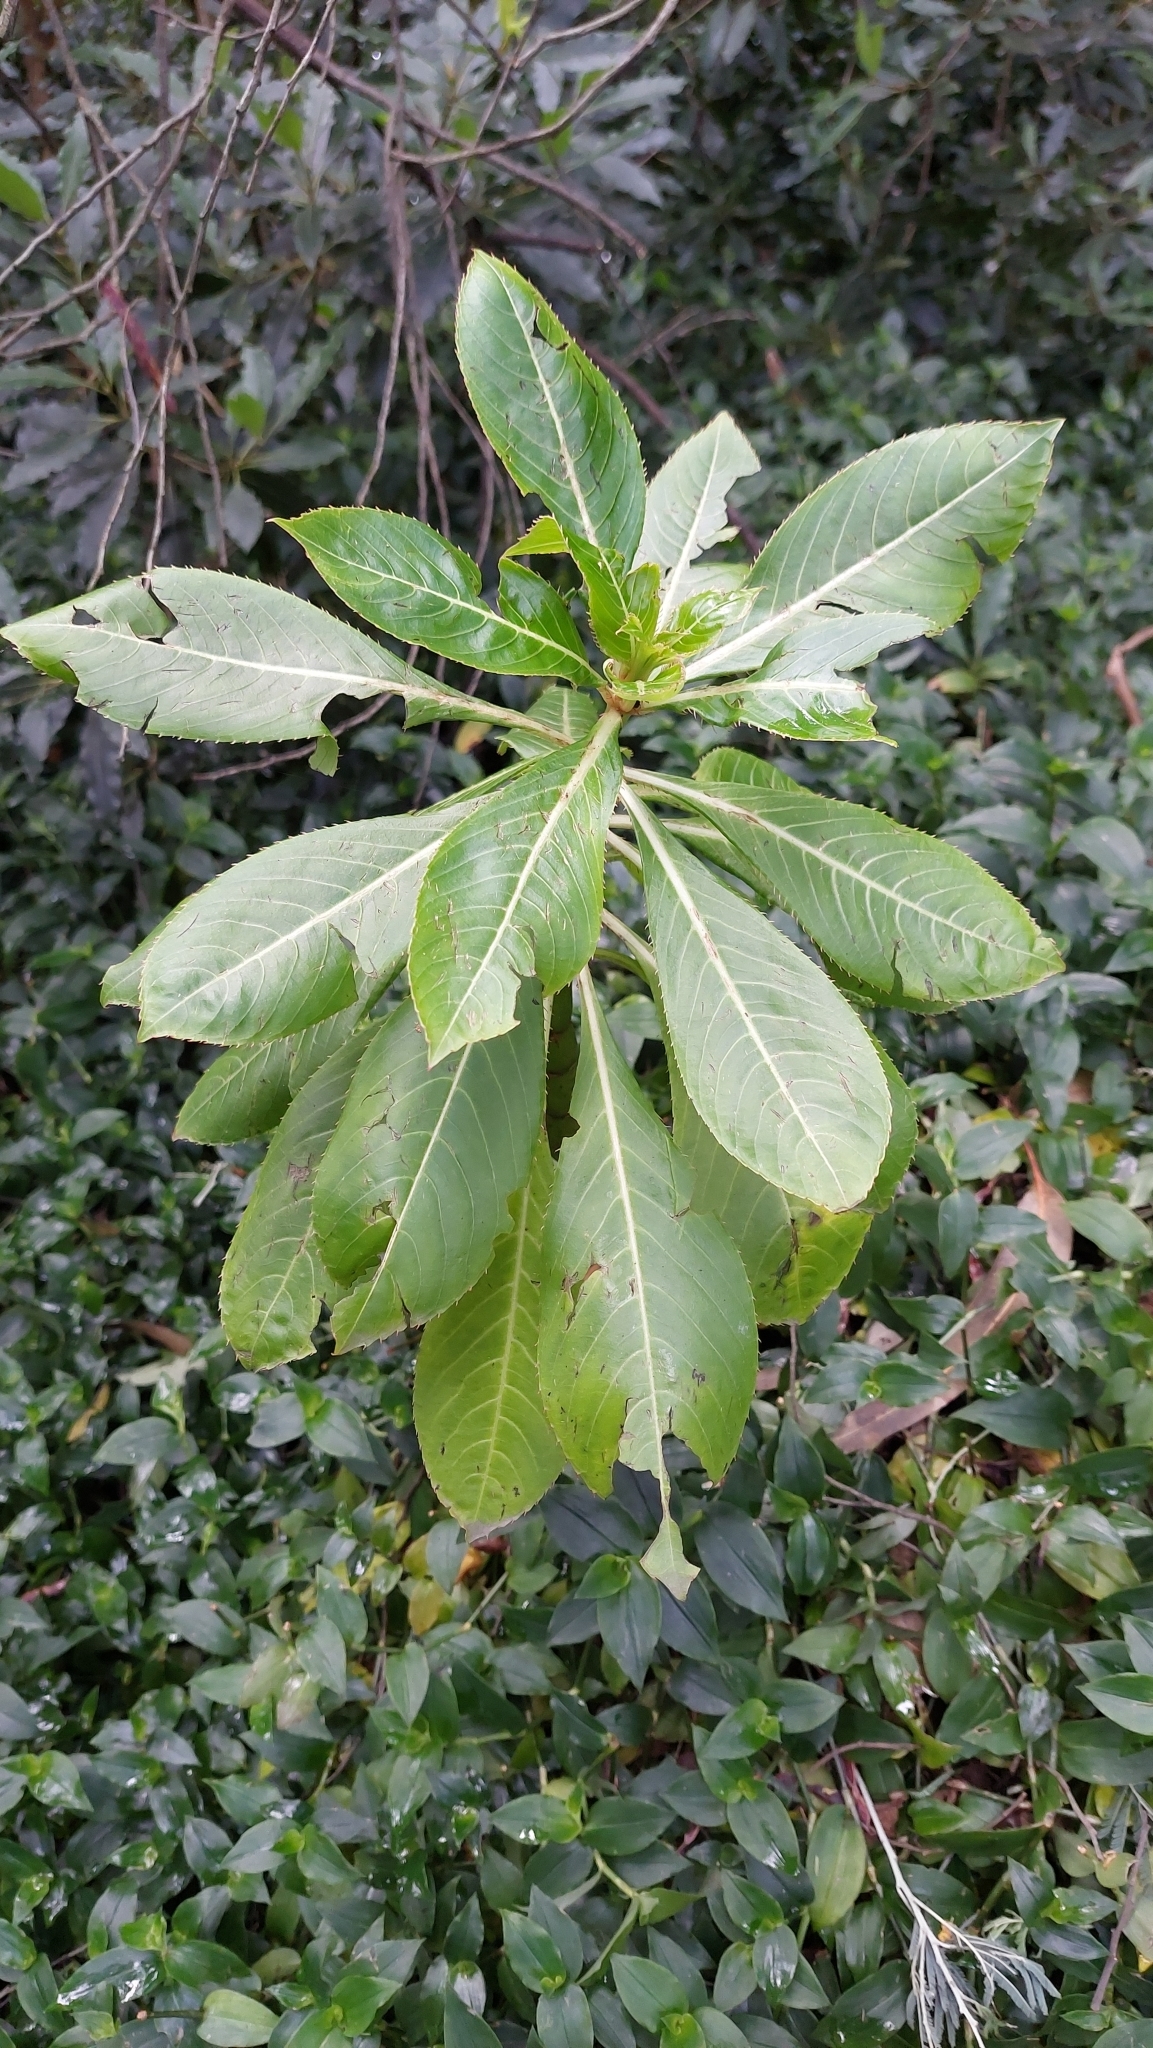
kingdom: Plantae
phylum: Tracheophyta
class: Magnoliopsida
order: Ericales
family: Balsaminaceae
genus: Impatiens
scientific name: Impatiens sodenii
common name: Oliver's touch-me-not
